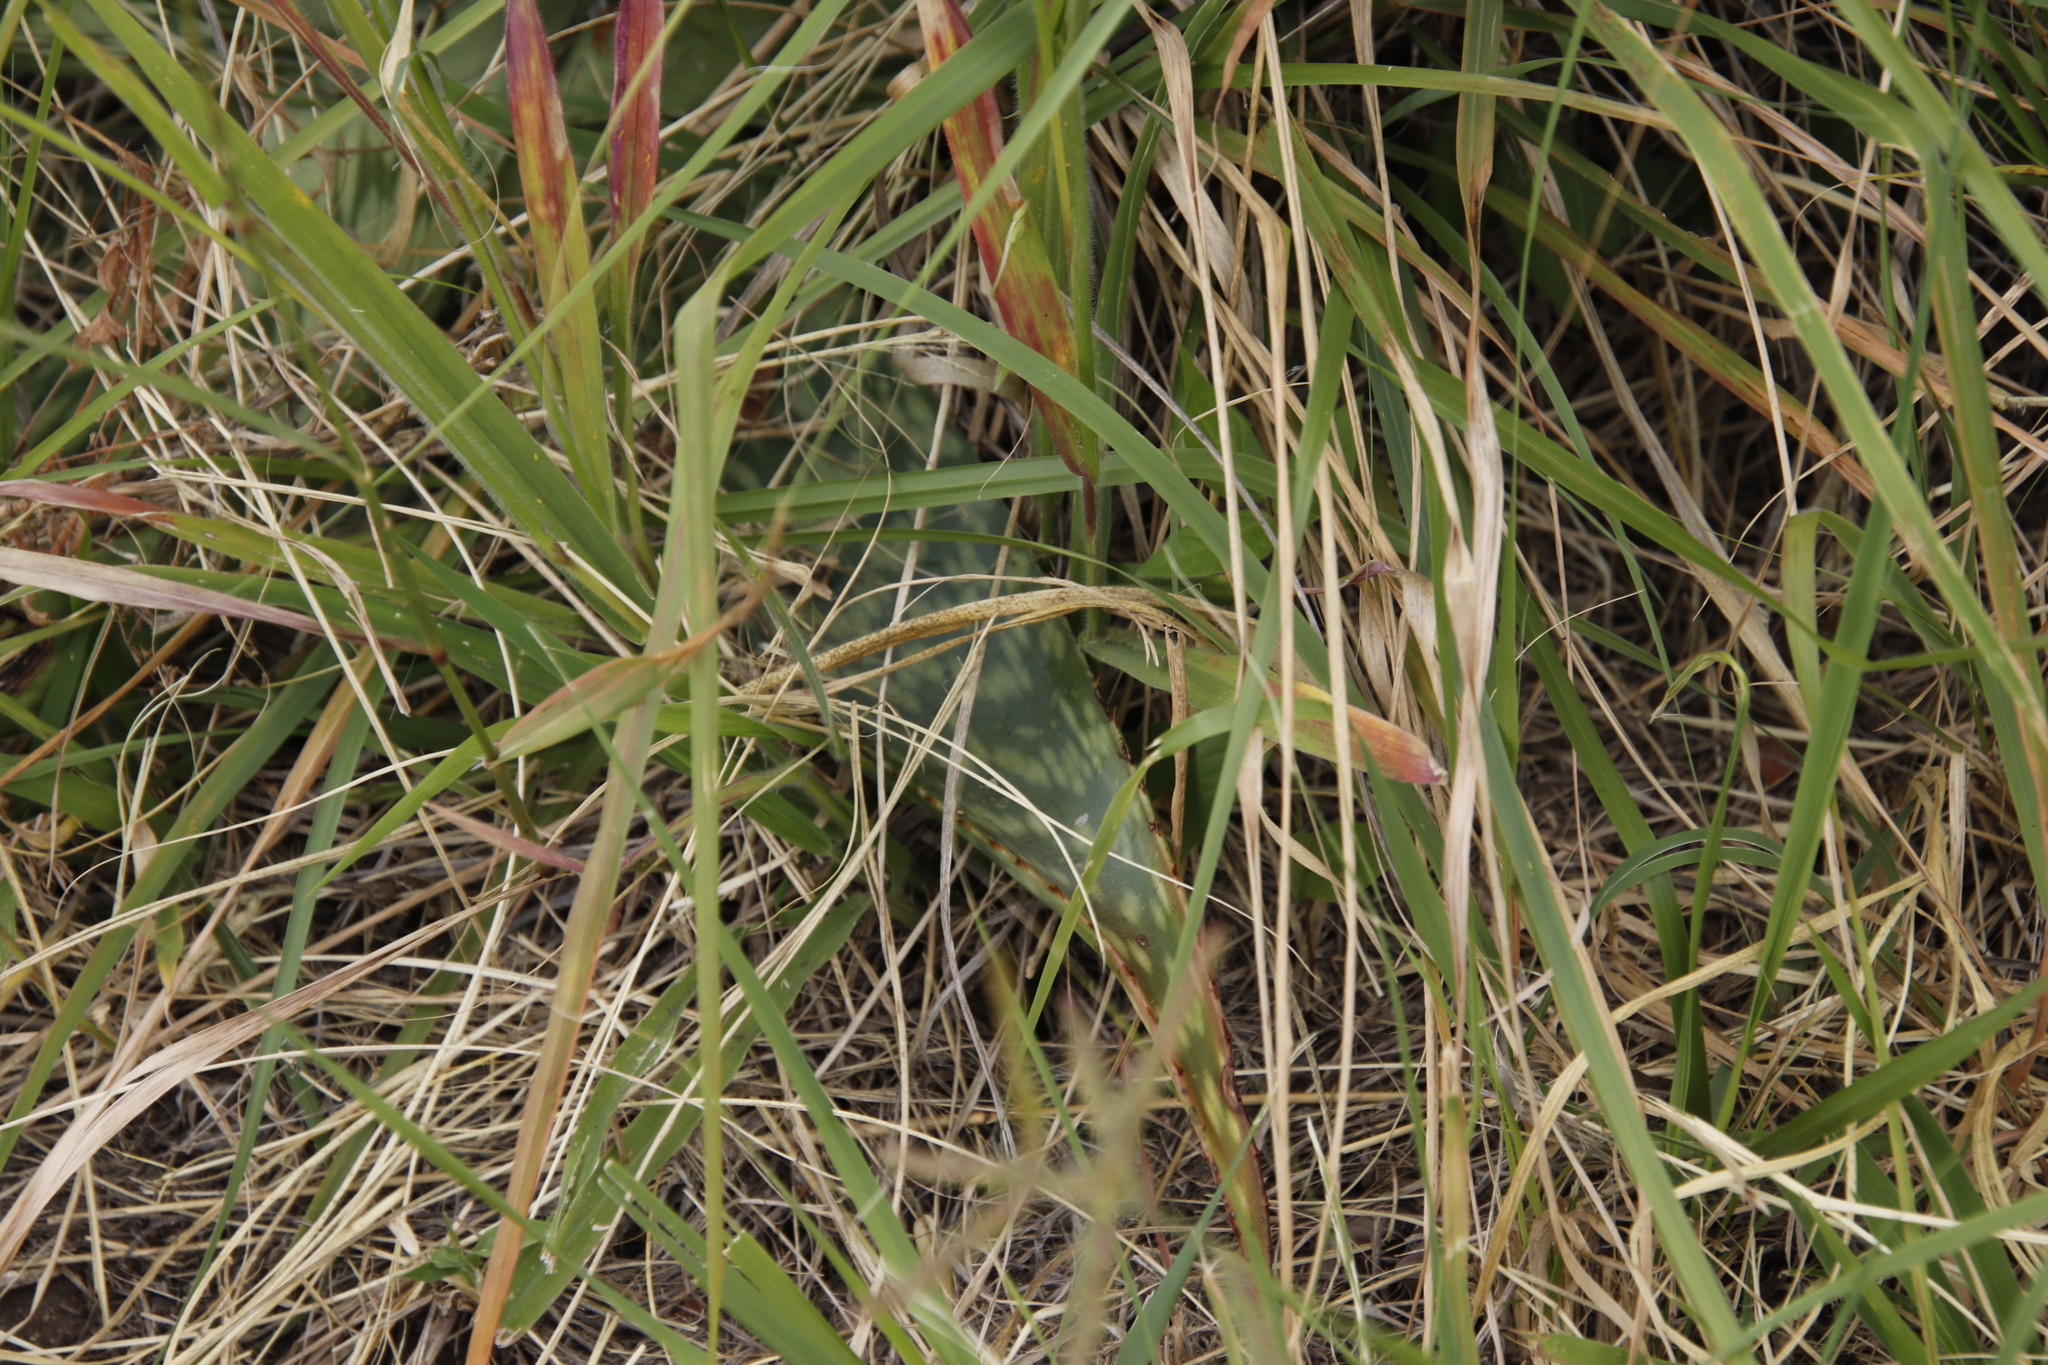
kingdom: Plantae
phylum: Tracheophyta
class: Liliopsida
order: Asparagales
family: Asphodelaceae
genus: Aloe
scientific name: Aloe zebrina
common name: Zebra-leaf aloe
